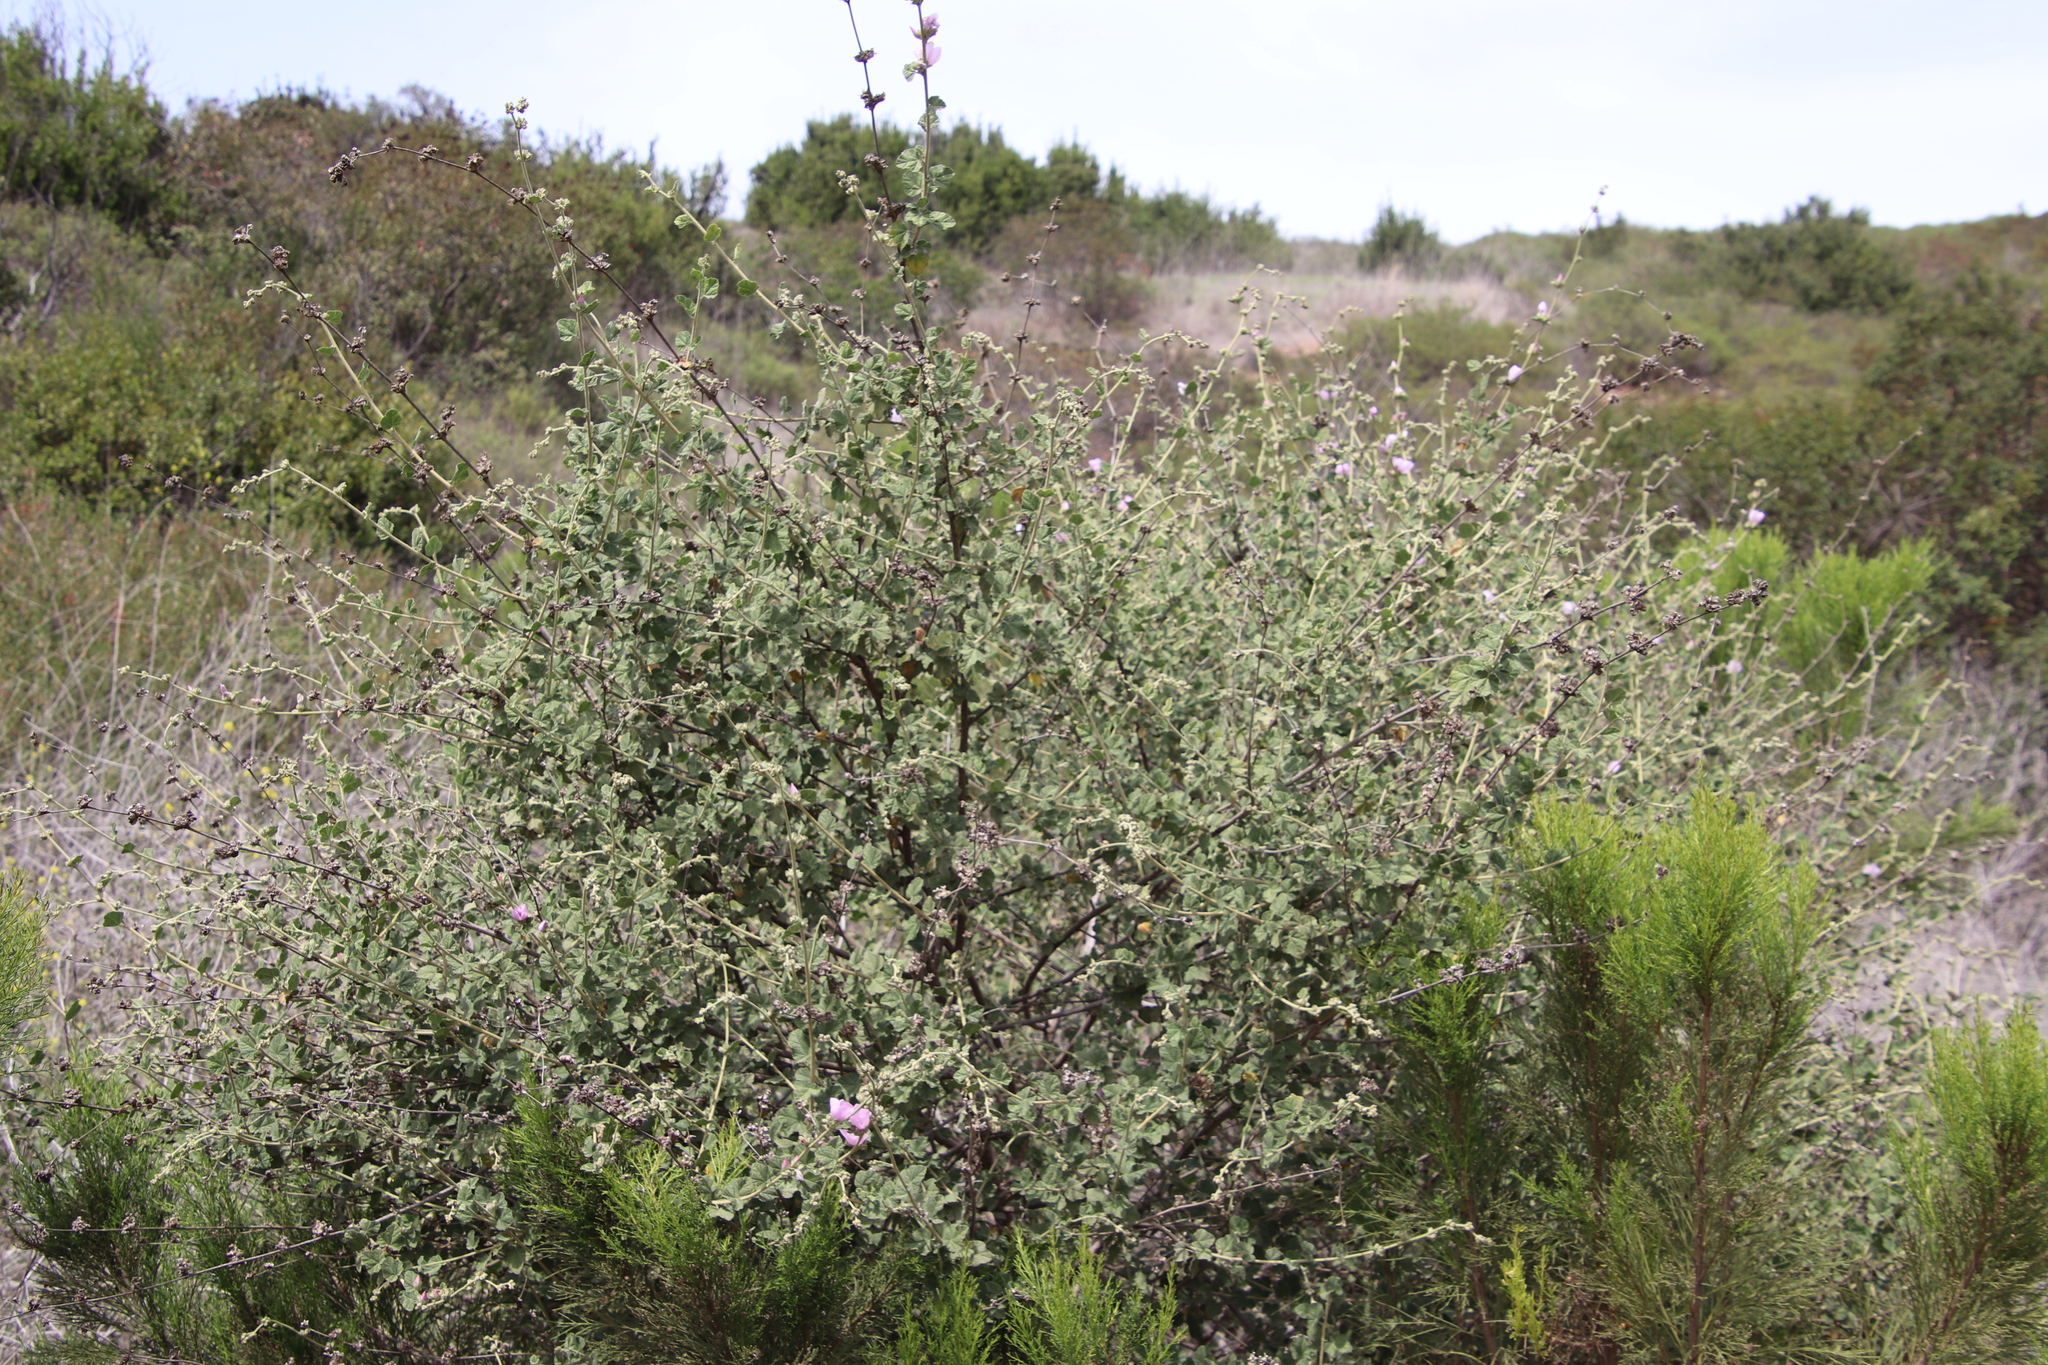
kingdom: Plantae
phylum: Tracheophyta
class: Magnoliopsida
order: Malvales
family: Malvaceae
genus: Malacothamnus
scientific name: Malacothamnus fasciculatus
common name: Sant cruz island bush-mallow
